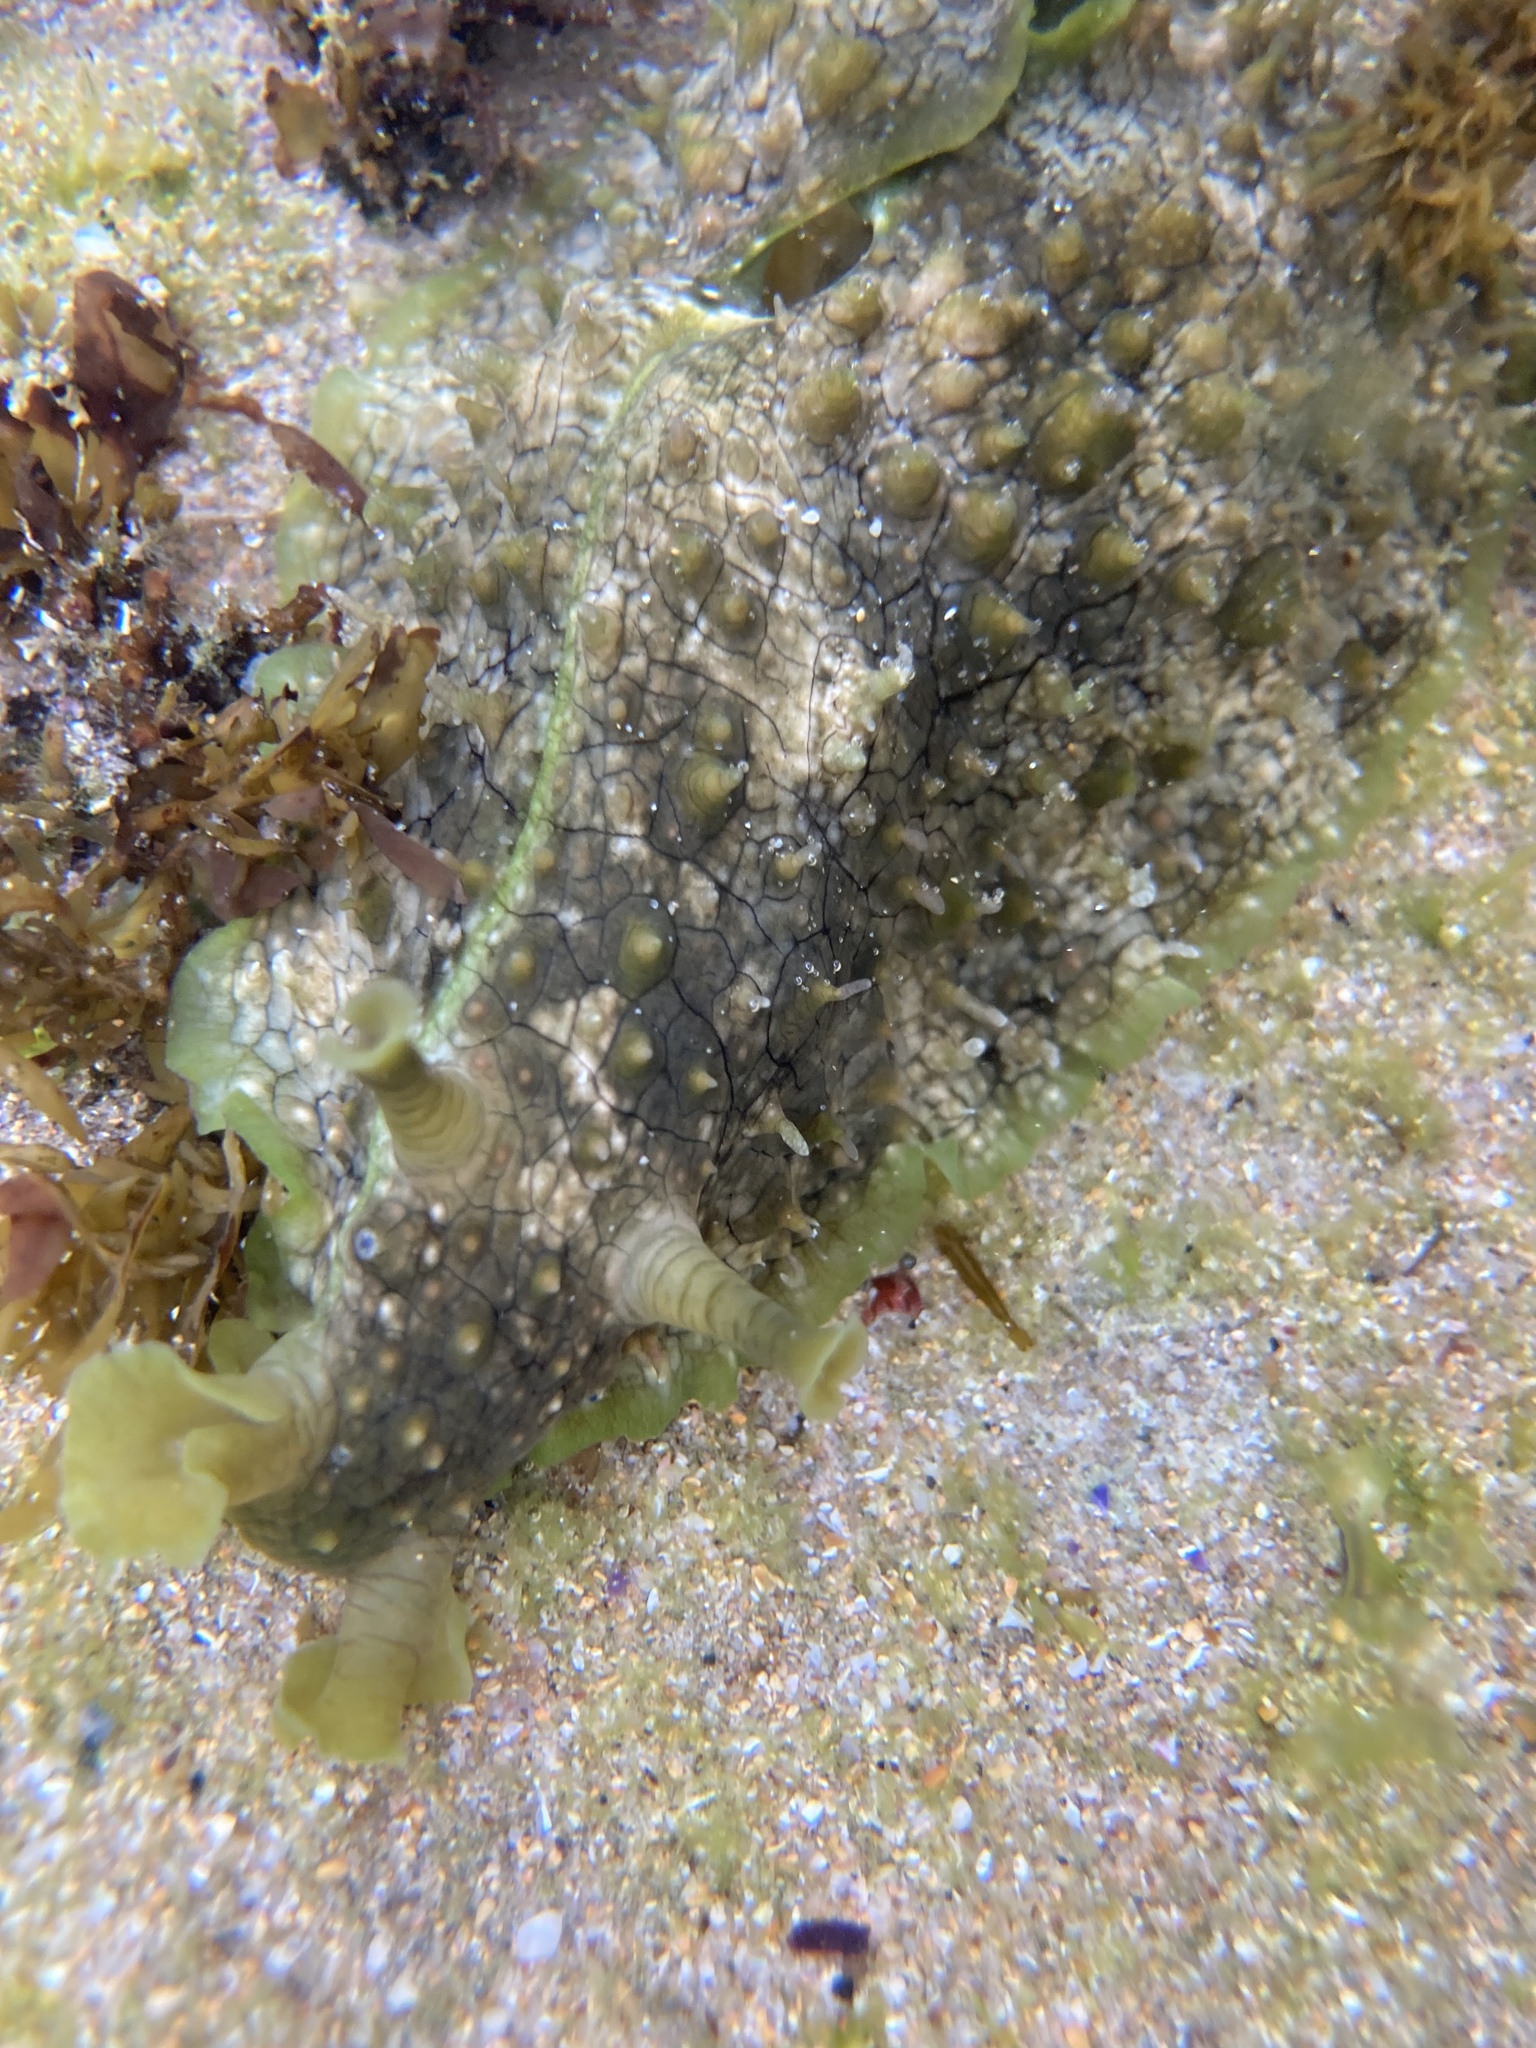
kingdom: Animalia
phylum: Mollusca
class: Gastropoda
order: Aplysiida
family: Aplysiidae
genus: Dolabrifera
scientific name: Dolabrifera brazieri
